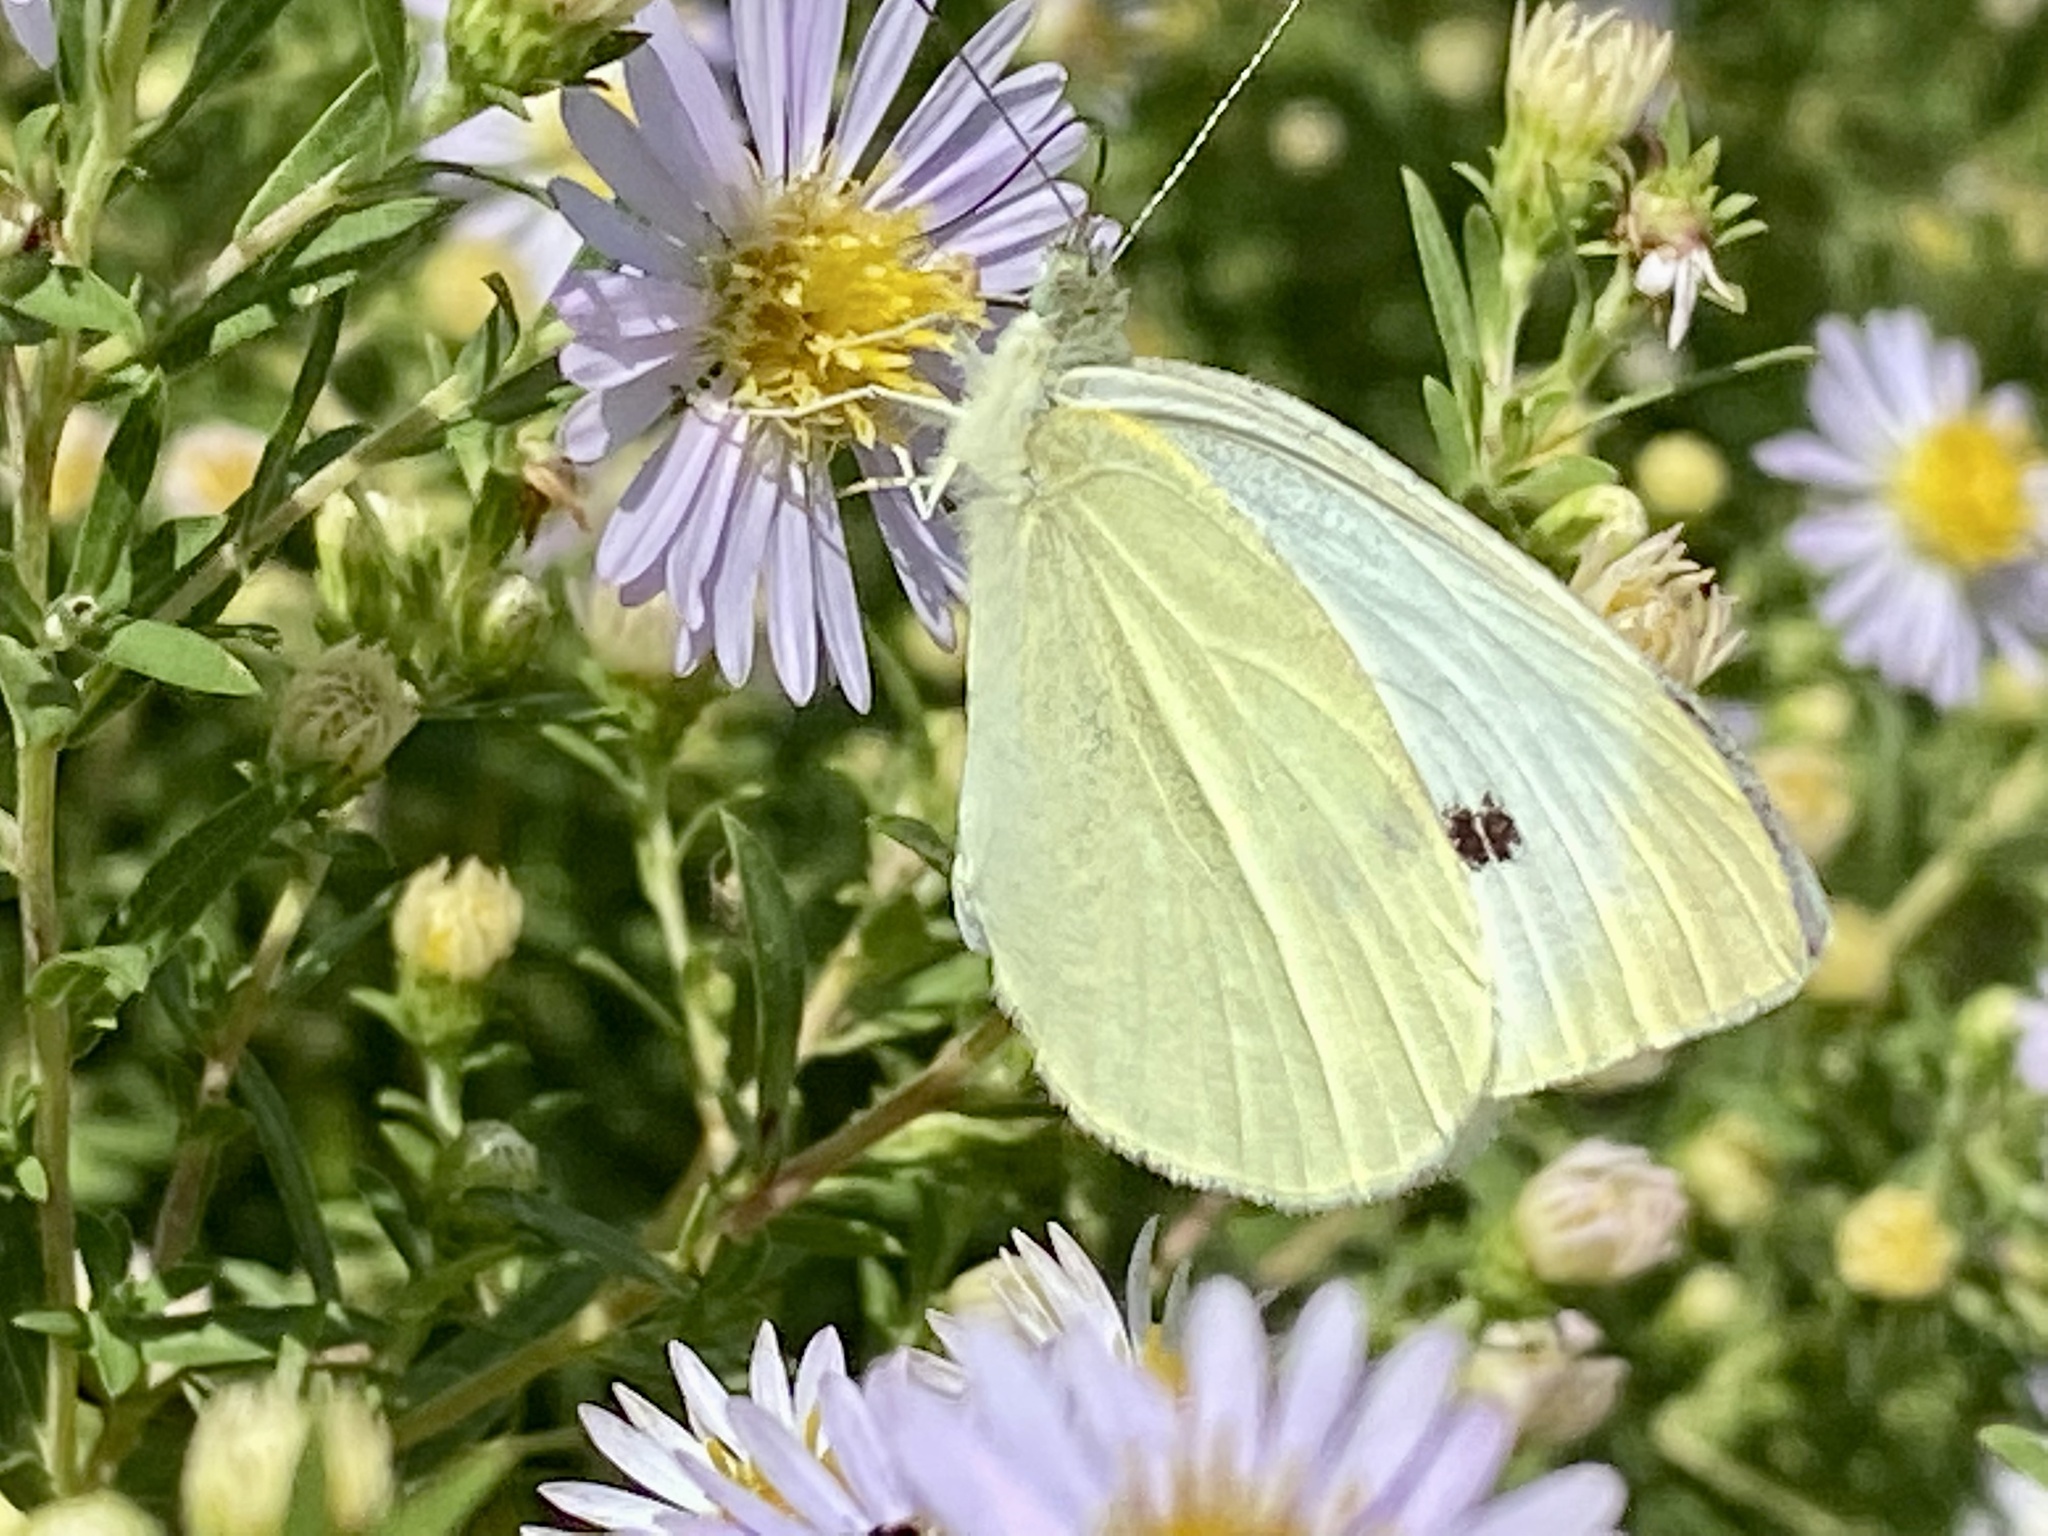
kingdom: Animalia
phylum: Arthropoda
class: Insecta
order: Lepidoptera
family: Pieridae
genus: Pieris
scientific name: Pieris rapae
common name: Small white
